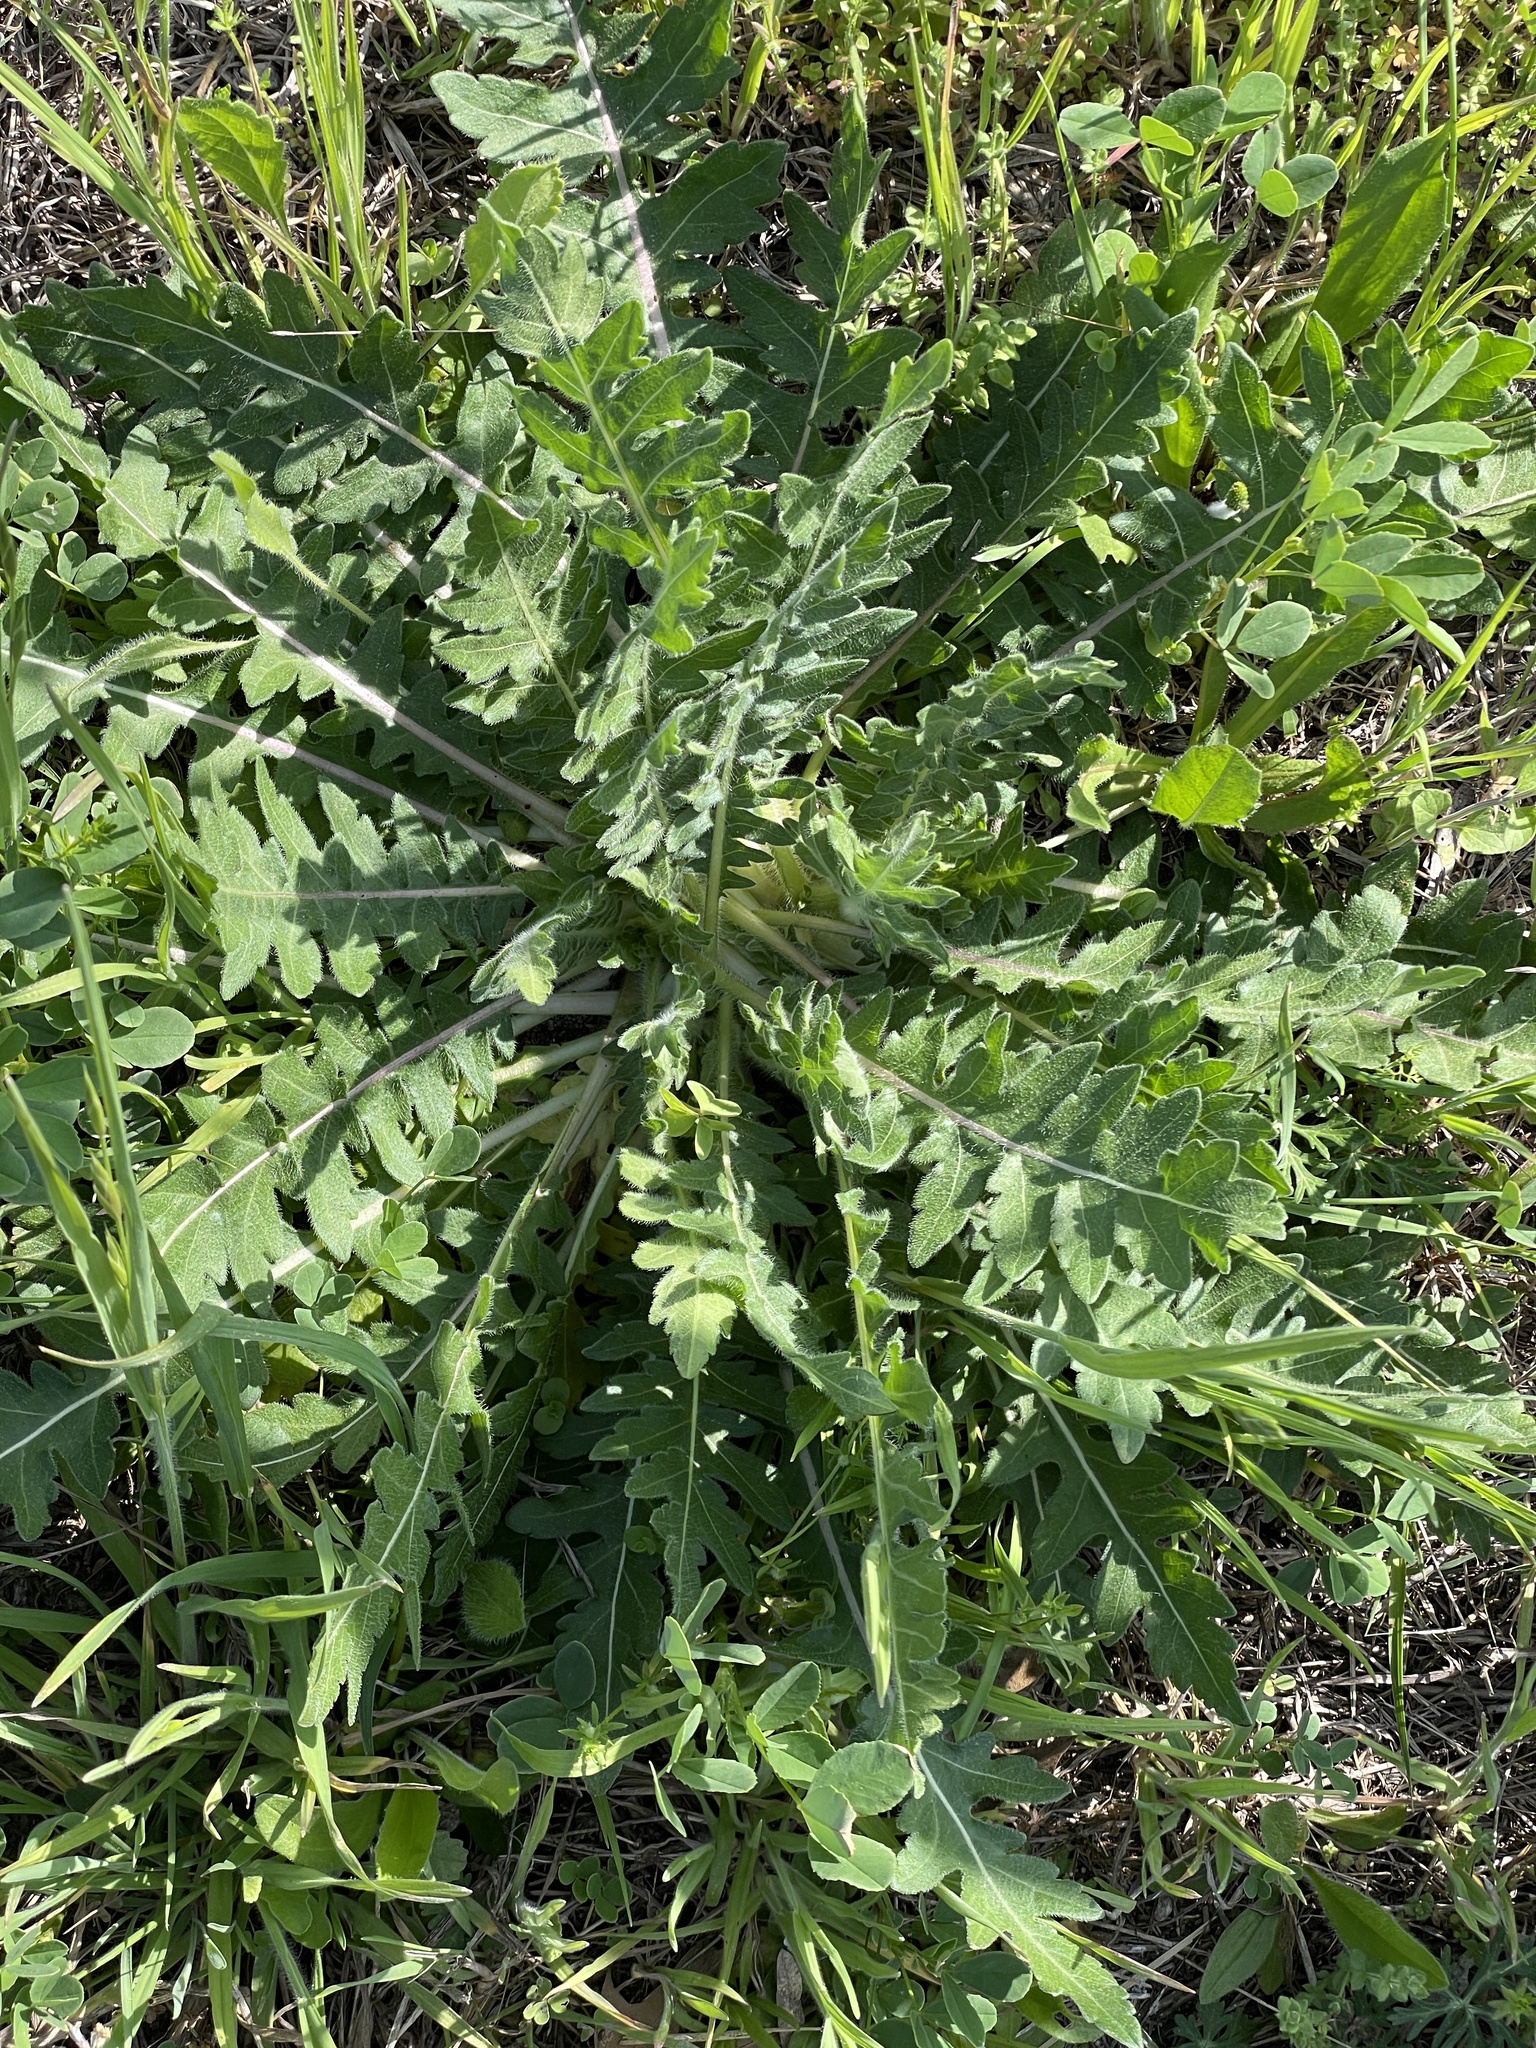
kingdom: Plantae
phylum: Tracheophyta
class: Magnoliopsida
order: Asterales
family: Asteraceae
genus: Engelmannia
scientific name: Engelmannia peristenia
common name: Engelmann's daisy
